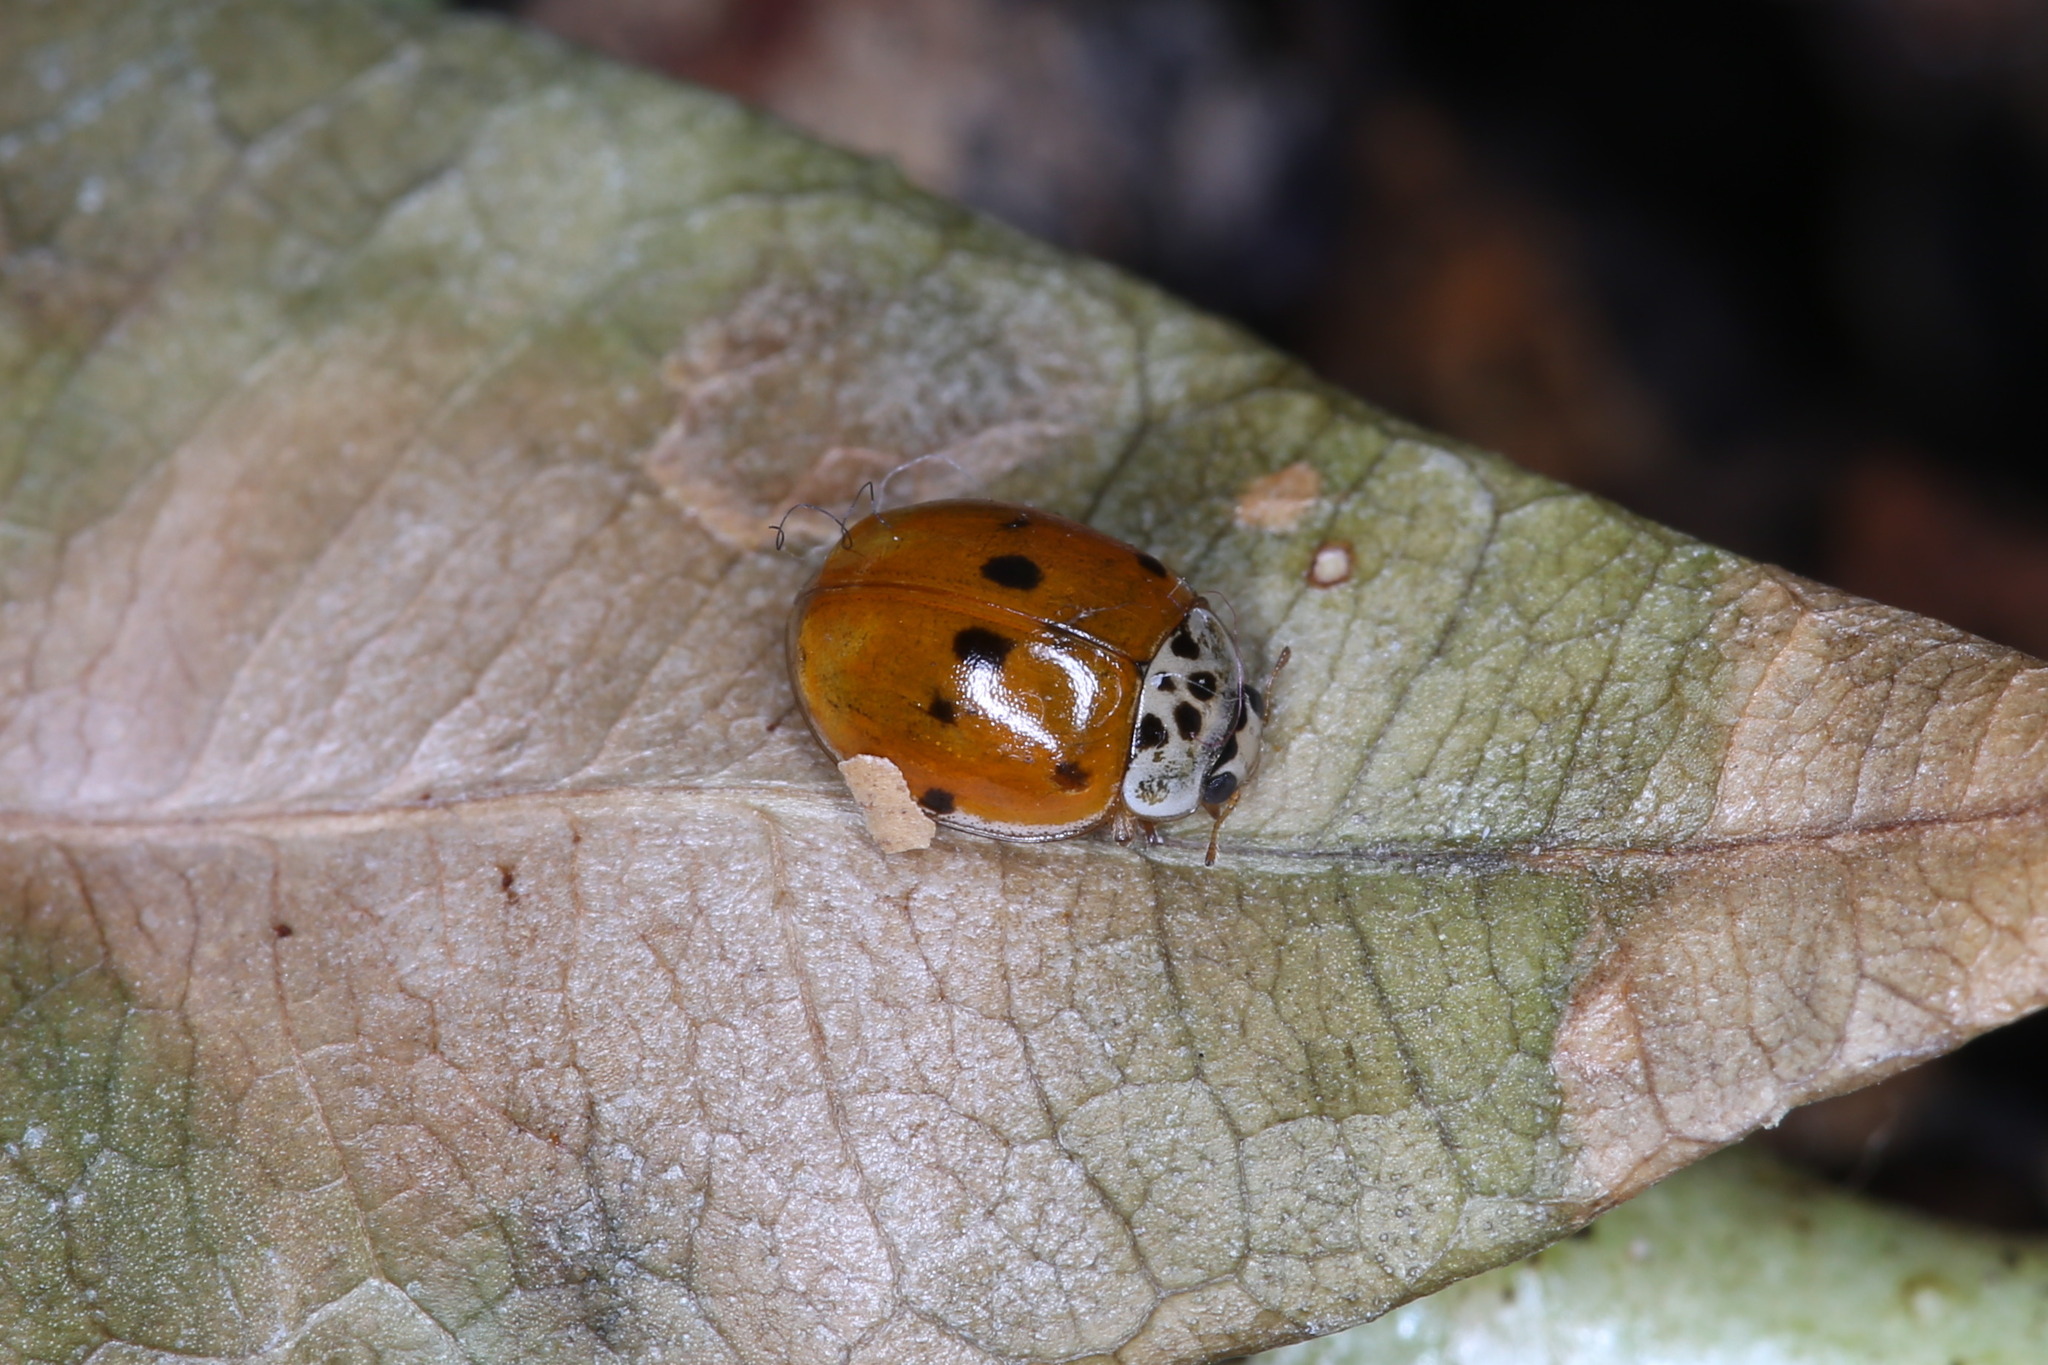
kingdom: Animalia
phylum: Arthropoda
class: Insecta
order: Coleoptera
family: Coccinellidae
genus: Adalia
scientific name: Adalia decempunctata
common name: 10-spot ladybird
